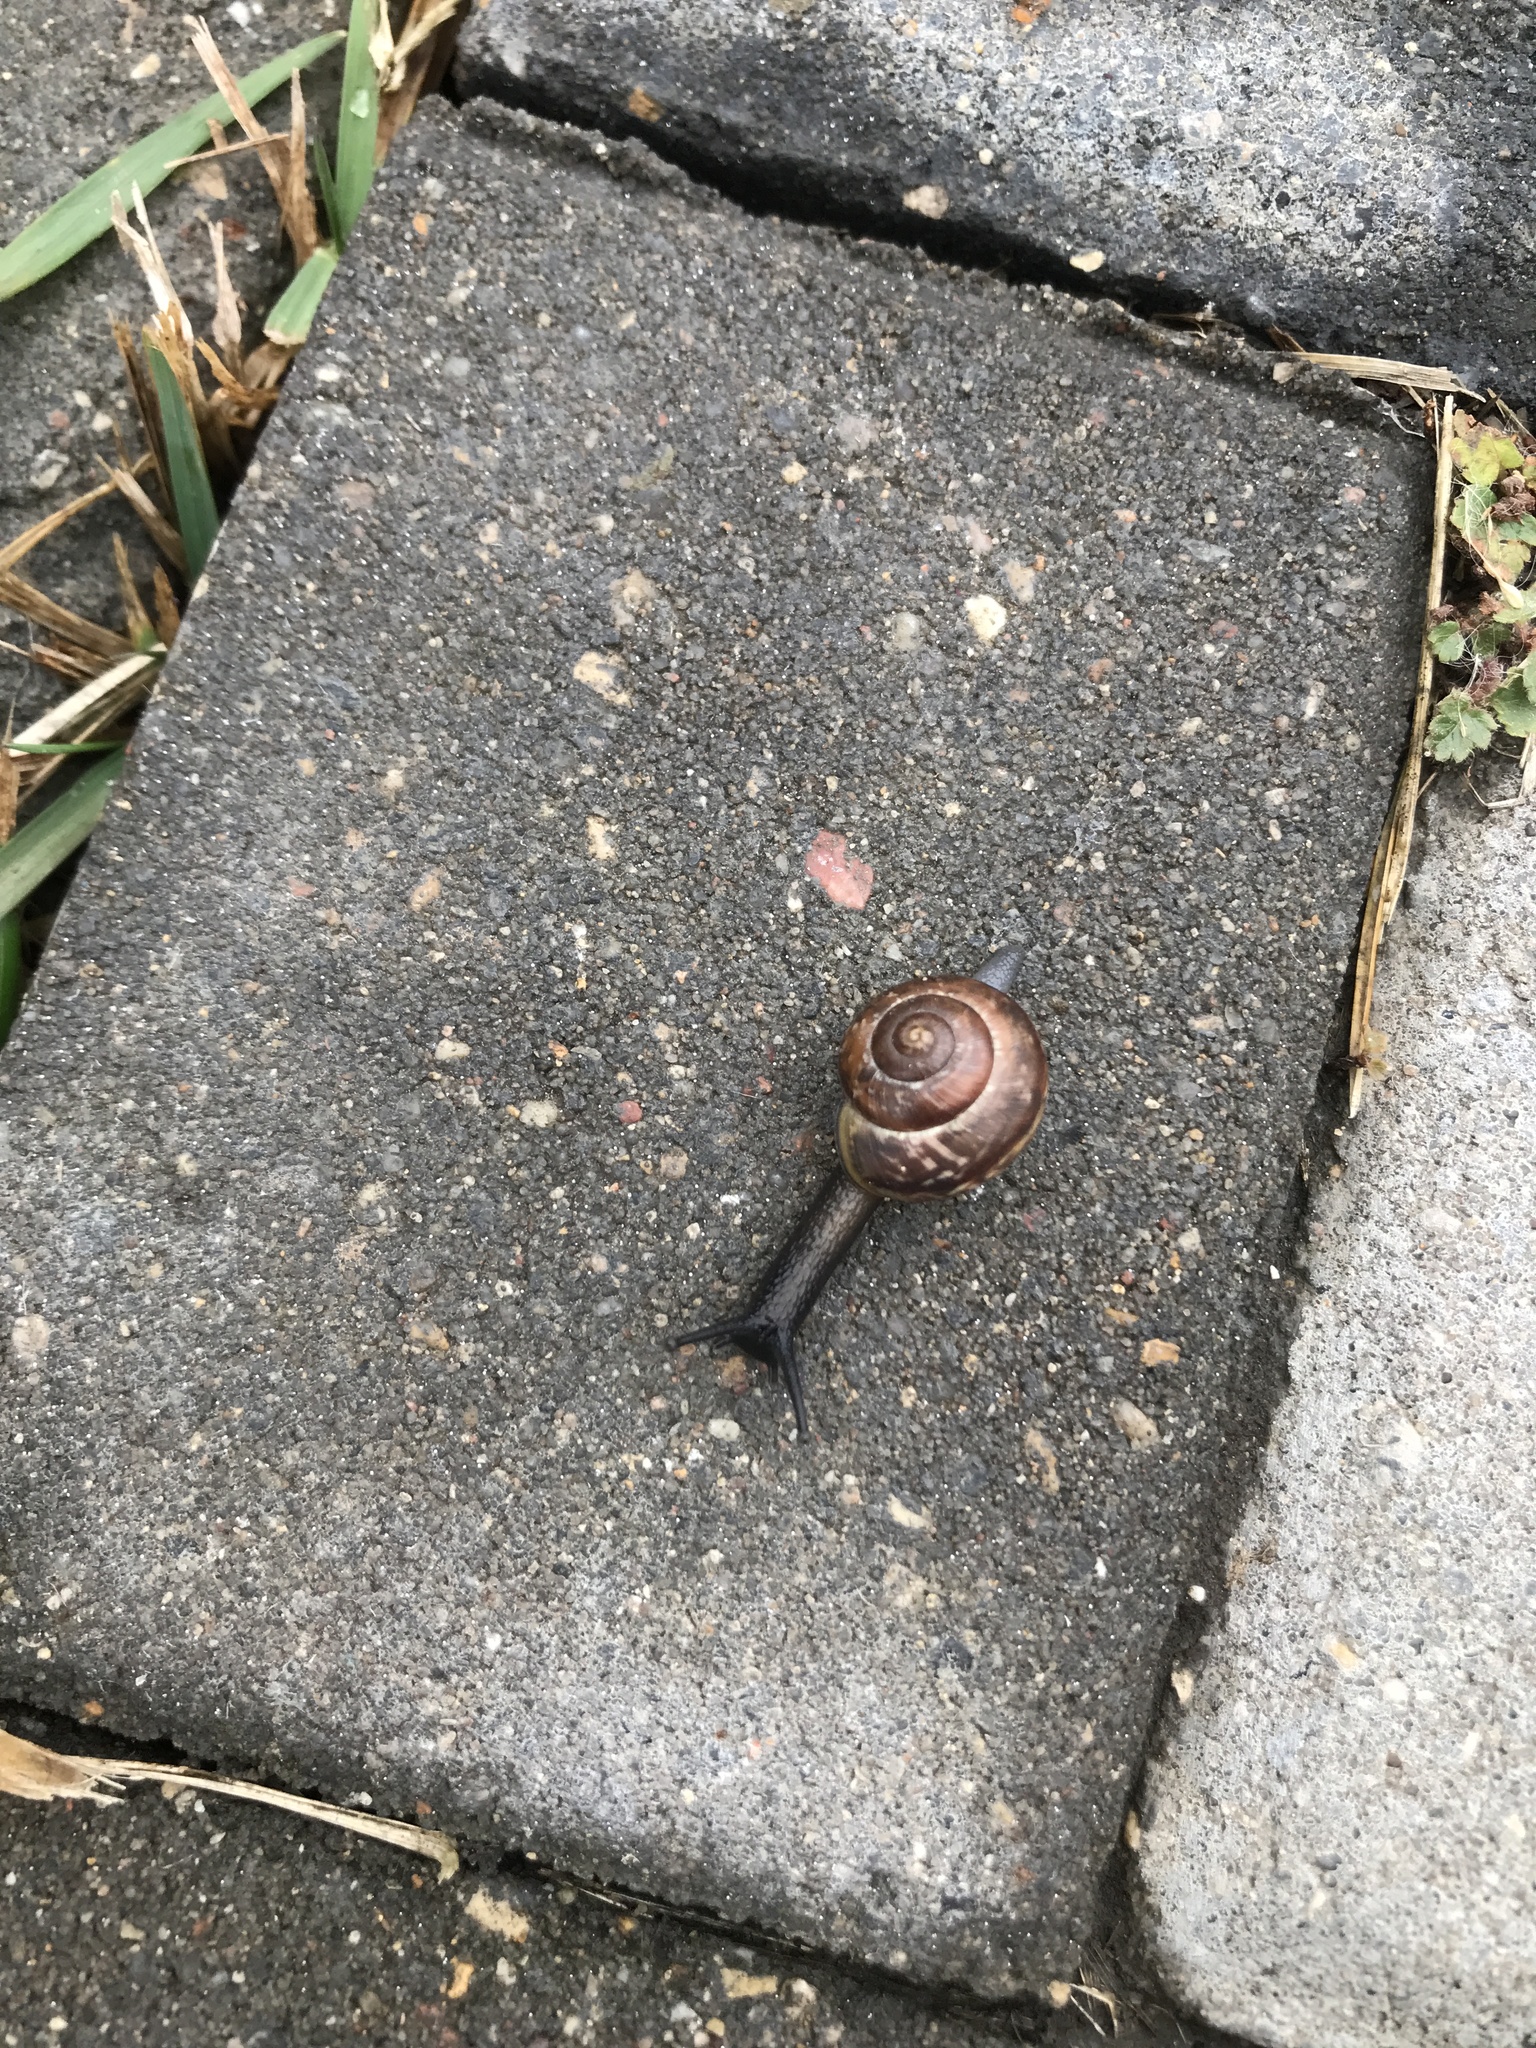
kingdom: Animalia
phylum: Mollusca
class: Gastropoda
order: Stylommatophora
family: Helicidae
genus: Arianta
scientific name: Arianta arbustorum
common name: Copse snail
